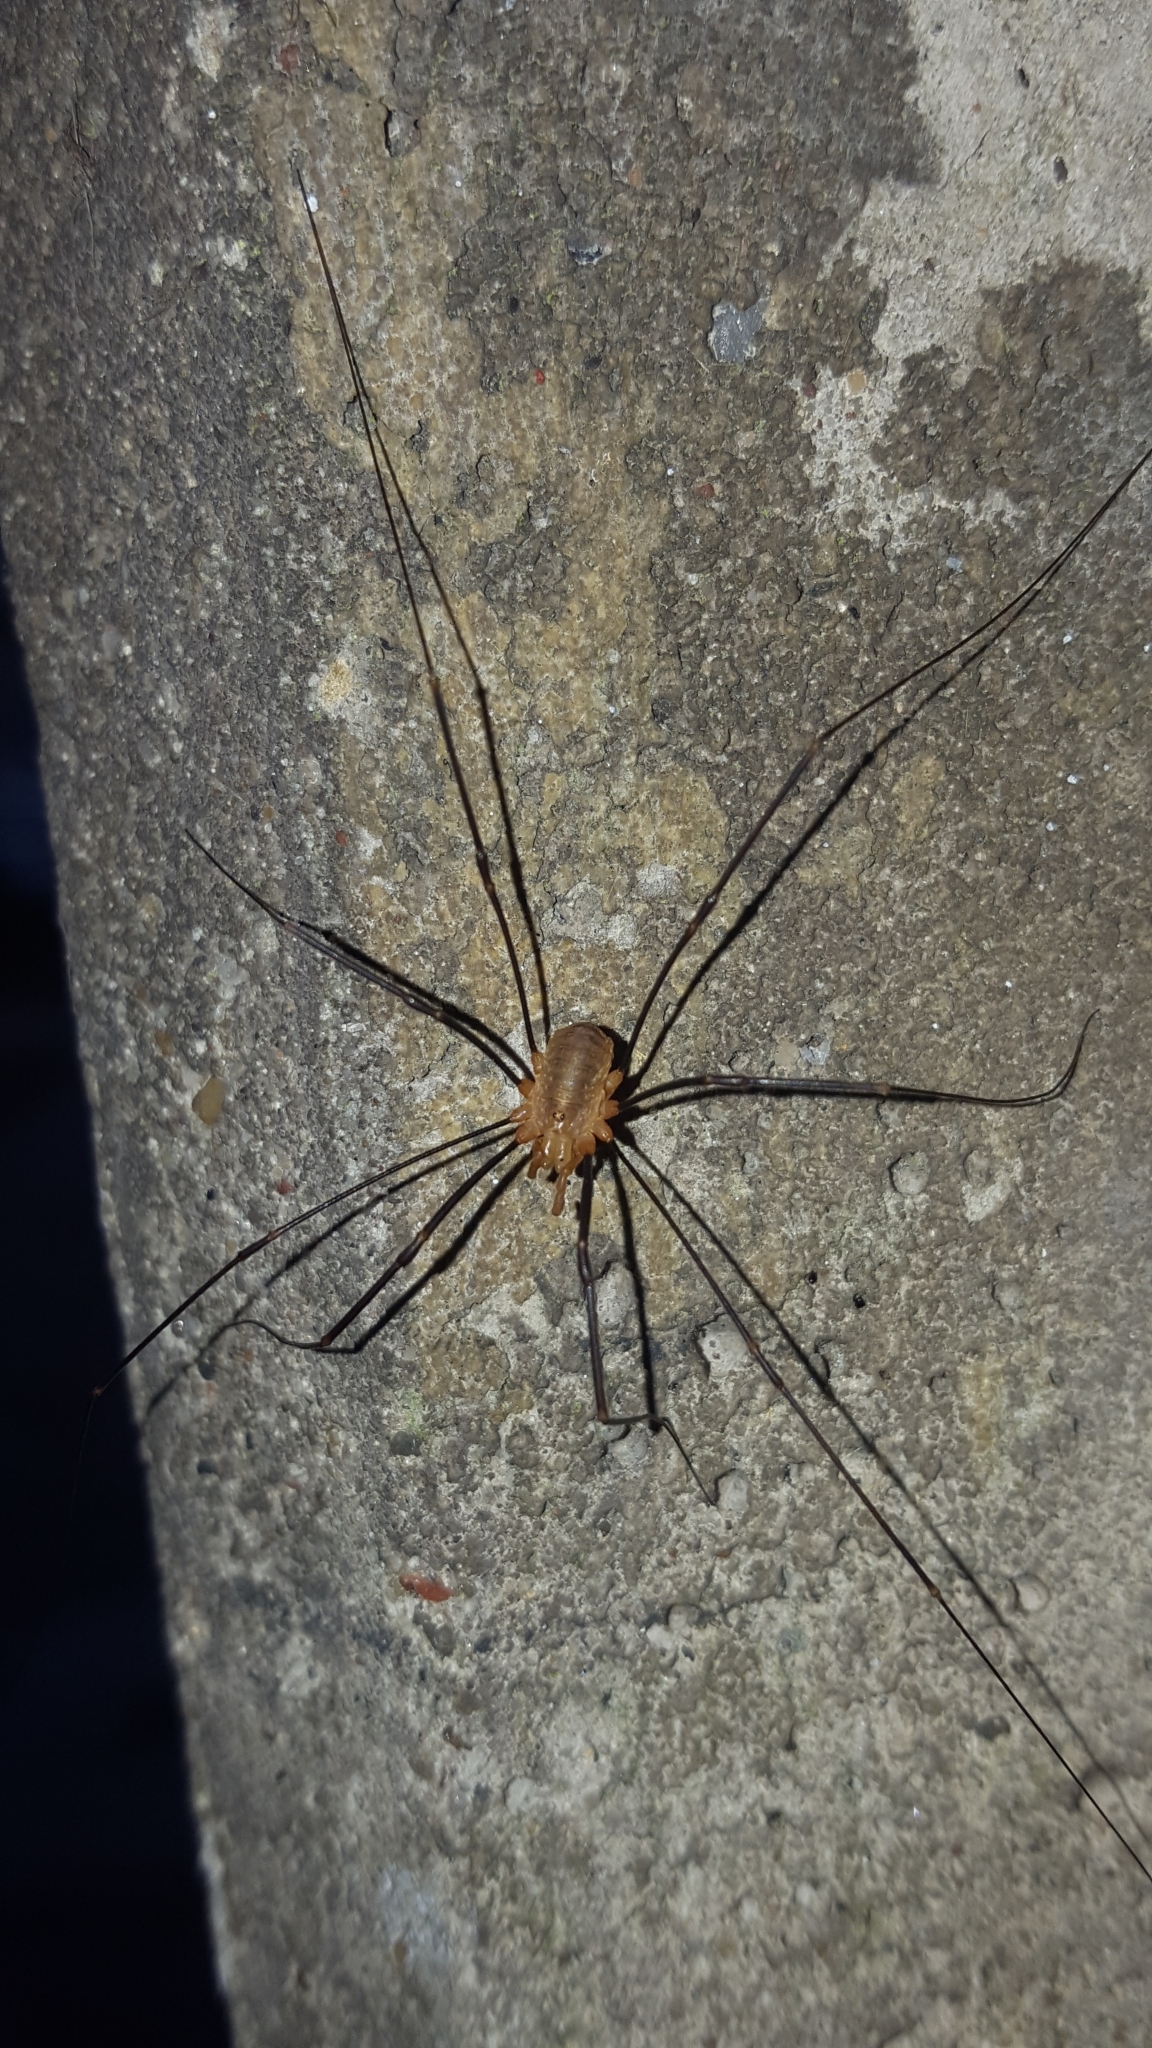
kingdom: Animalia
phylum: Arthropoda
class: Arachnida
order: Opiliones
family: Phalangiidae
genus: Opilio
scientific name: Opilio canestrinii
